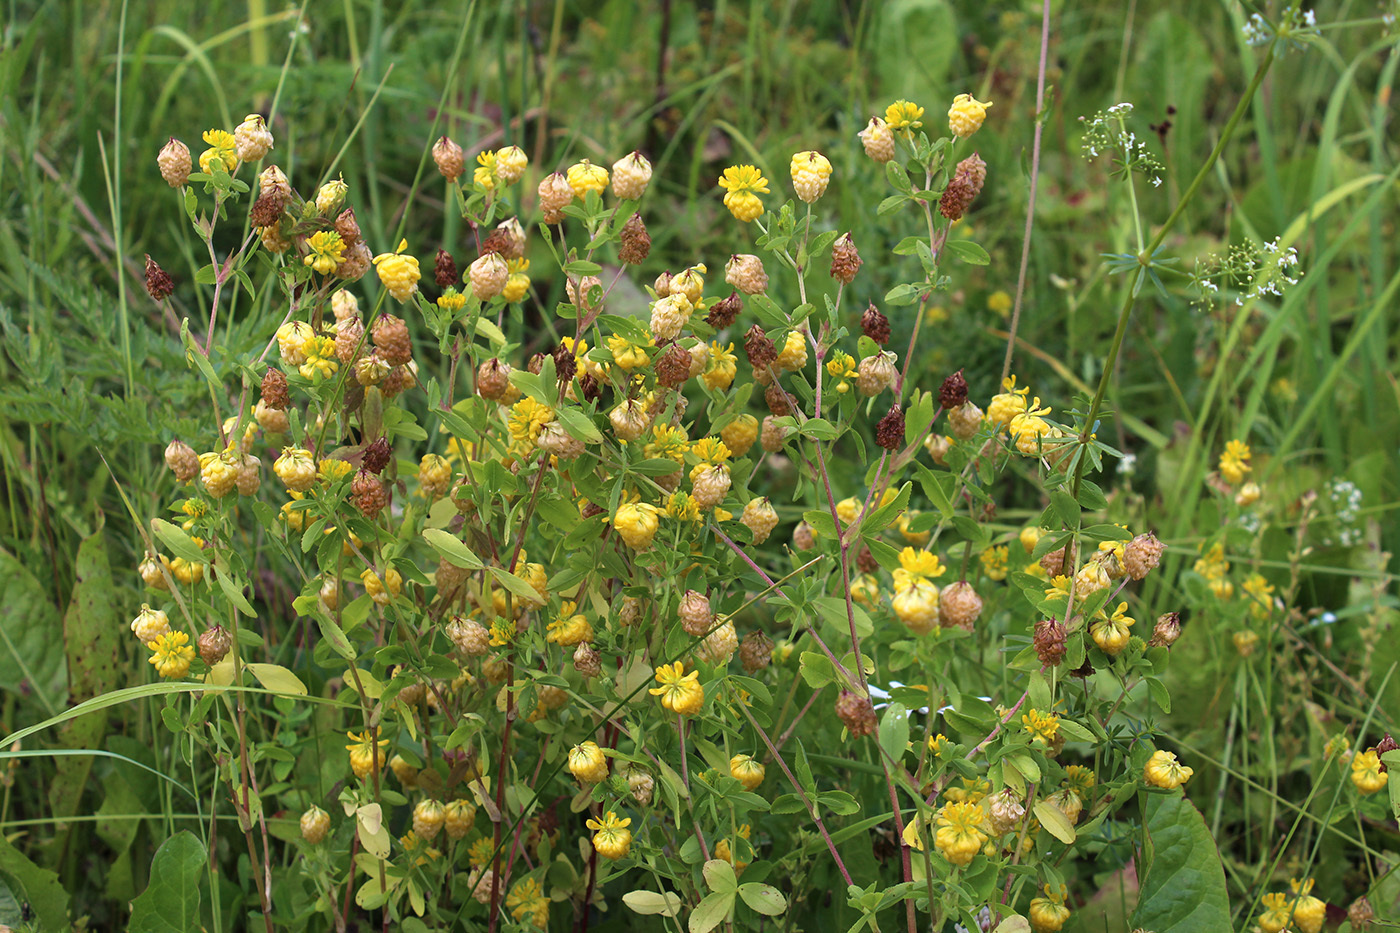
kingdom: Plantae
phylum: Tracheophyta
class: Magnoliopsida
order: Fabales
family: Fabaceae
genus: Trifolium
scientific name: Trifolium aureum
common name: Golden clover
